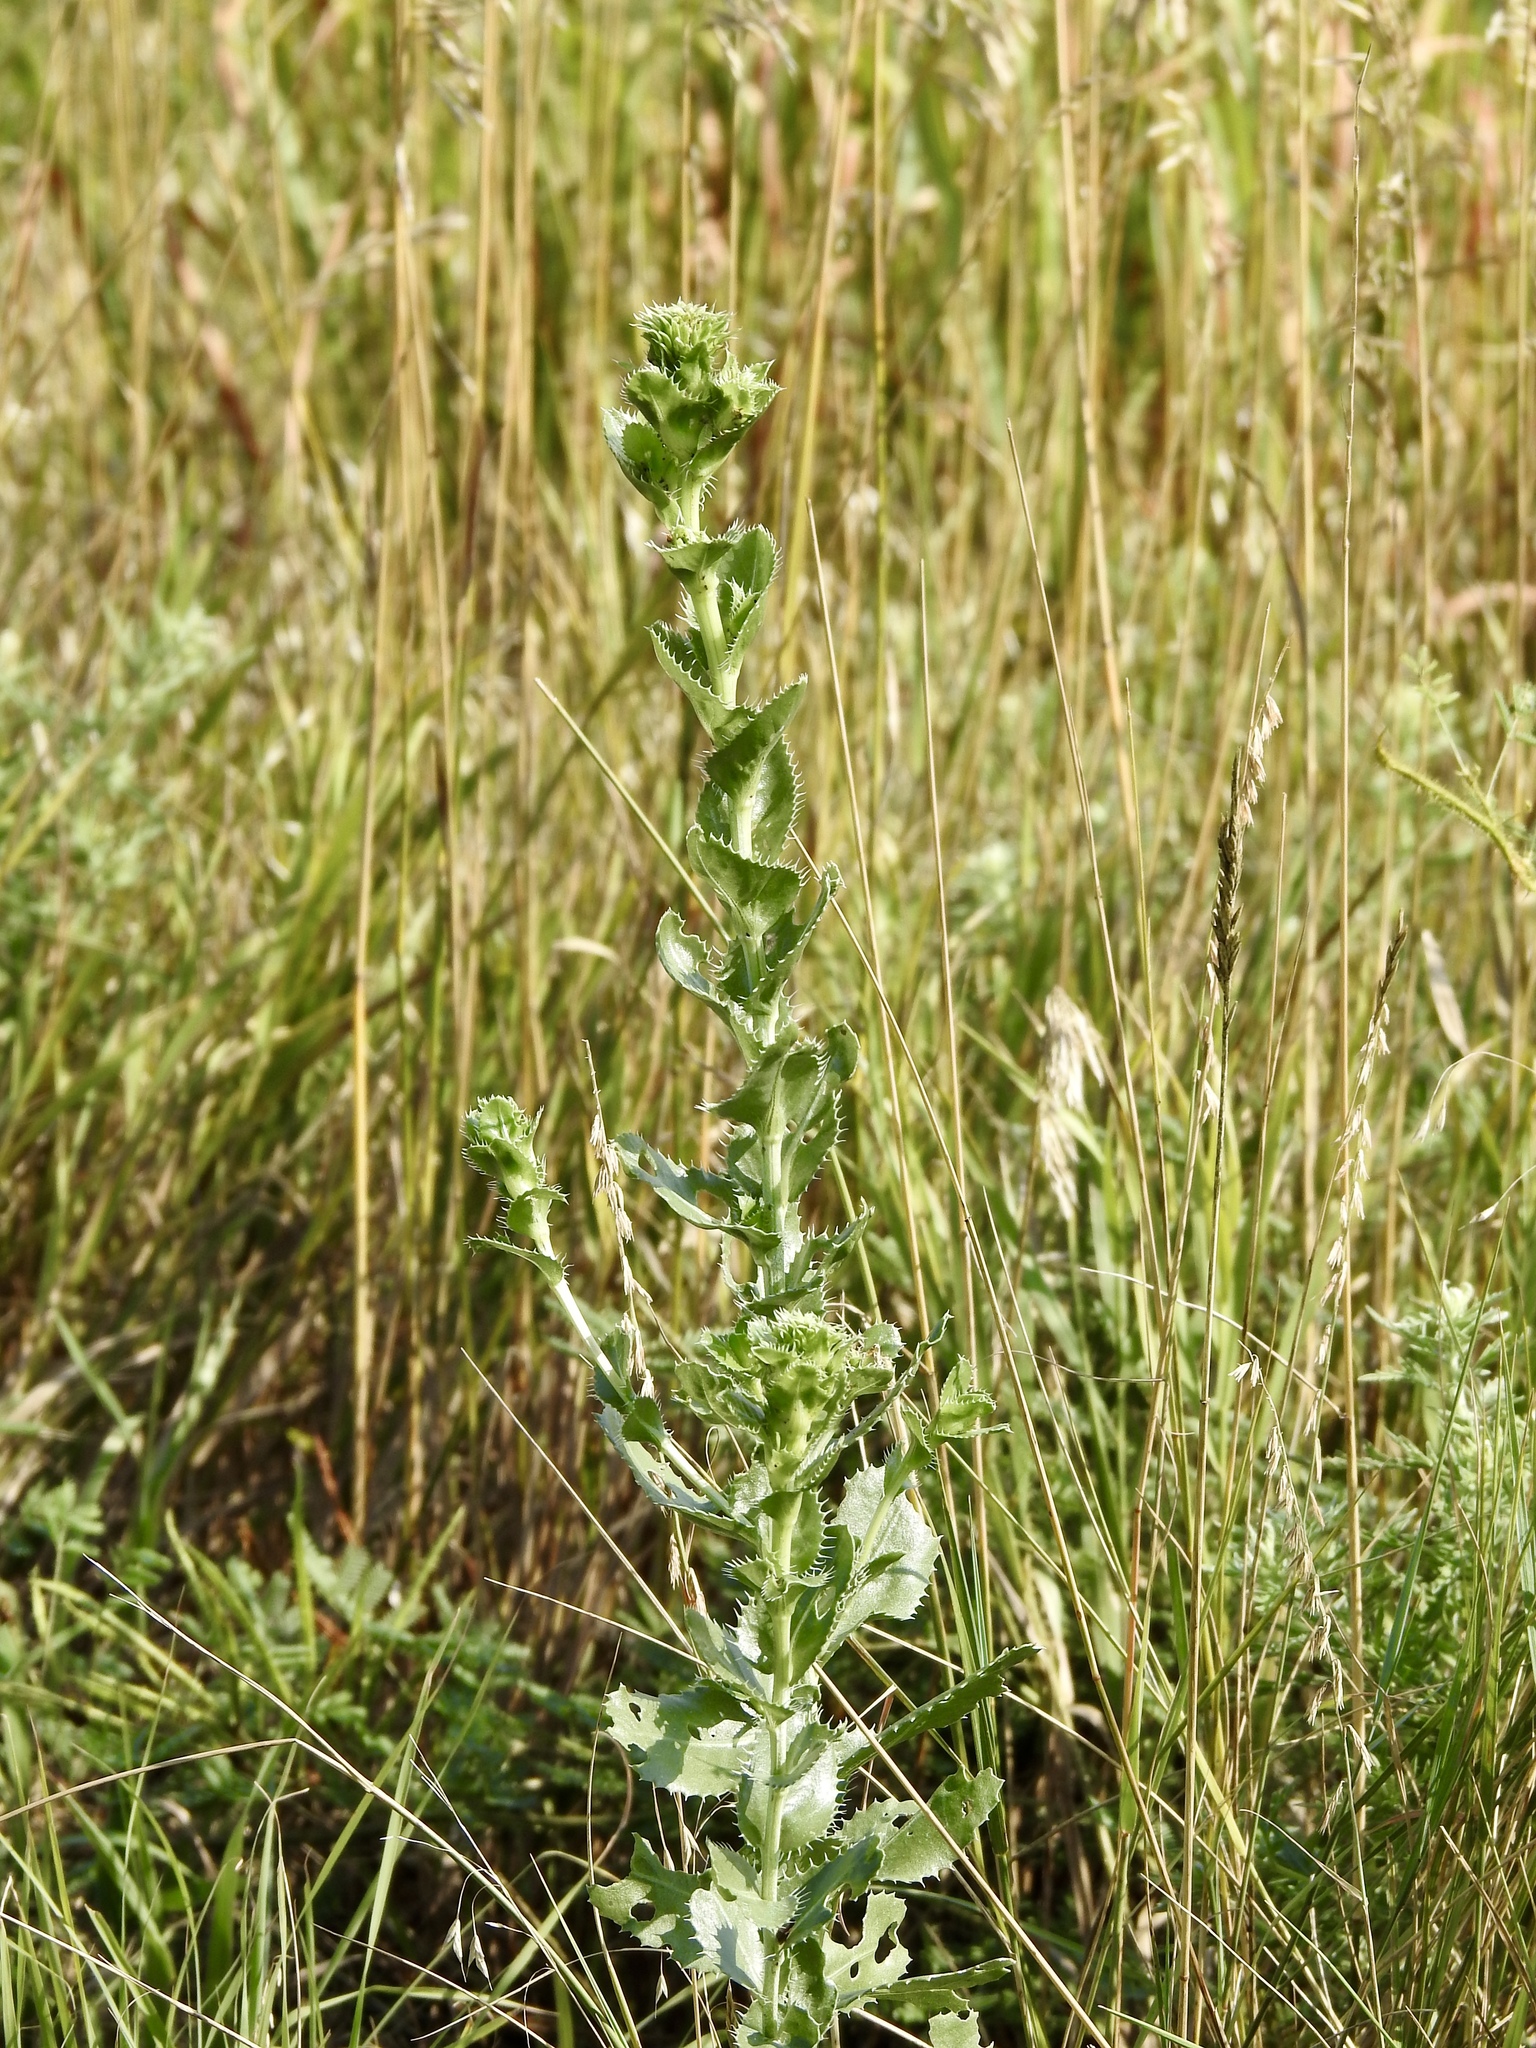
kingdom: Plantae
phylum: Tracheophyta
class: Magnoliopsida
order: Asterales
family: Asteraceae
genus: Grindelia
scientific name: Grindelia ciliata
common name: Goldenweed
